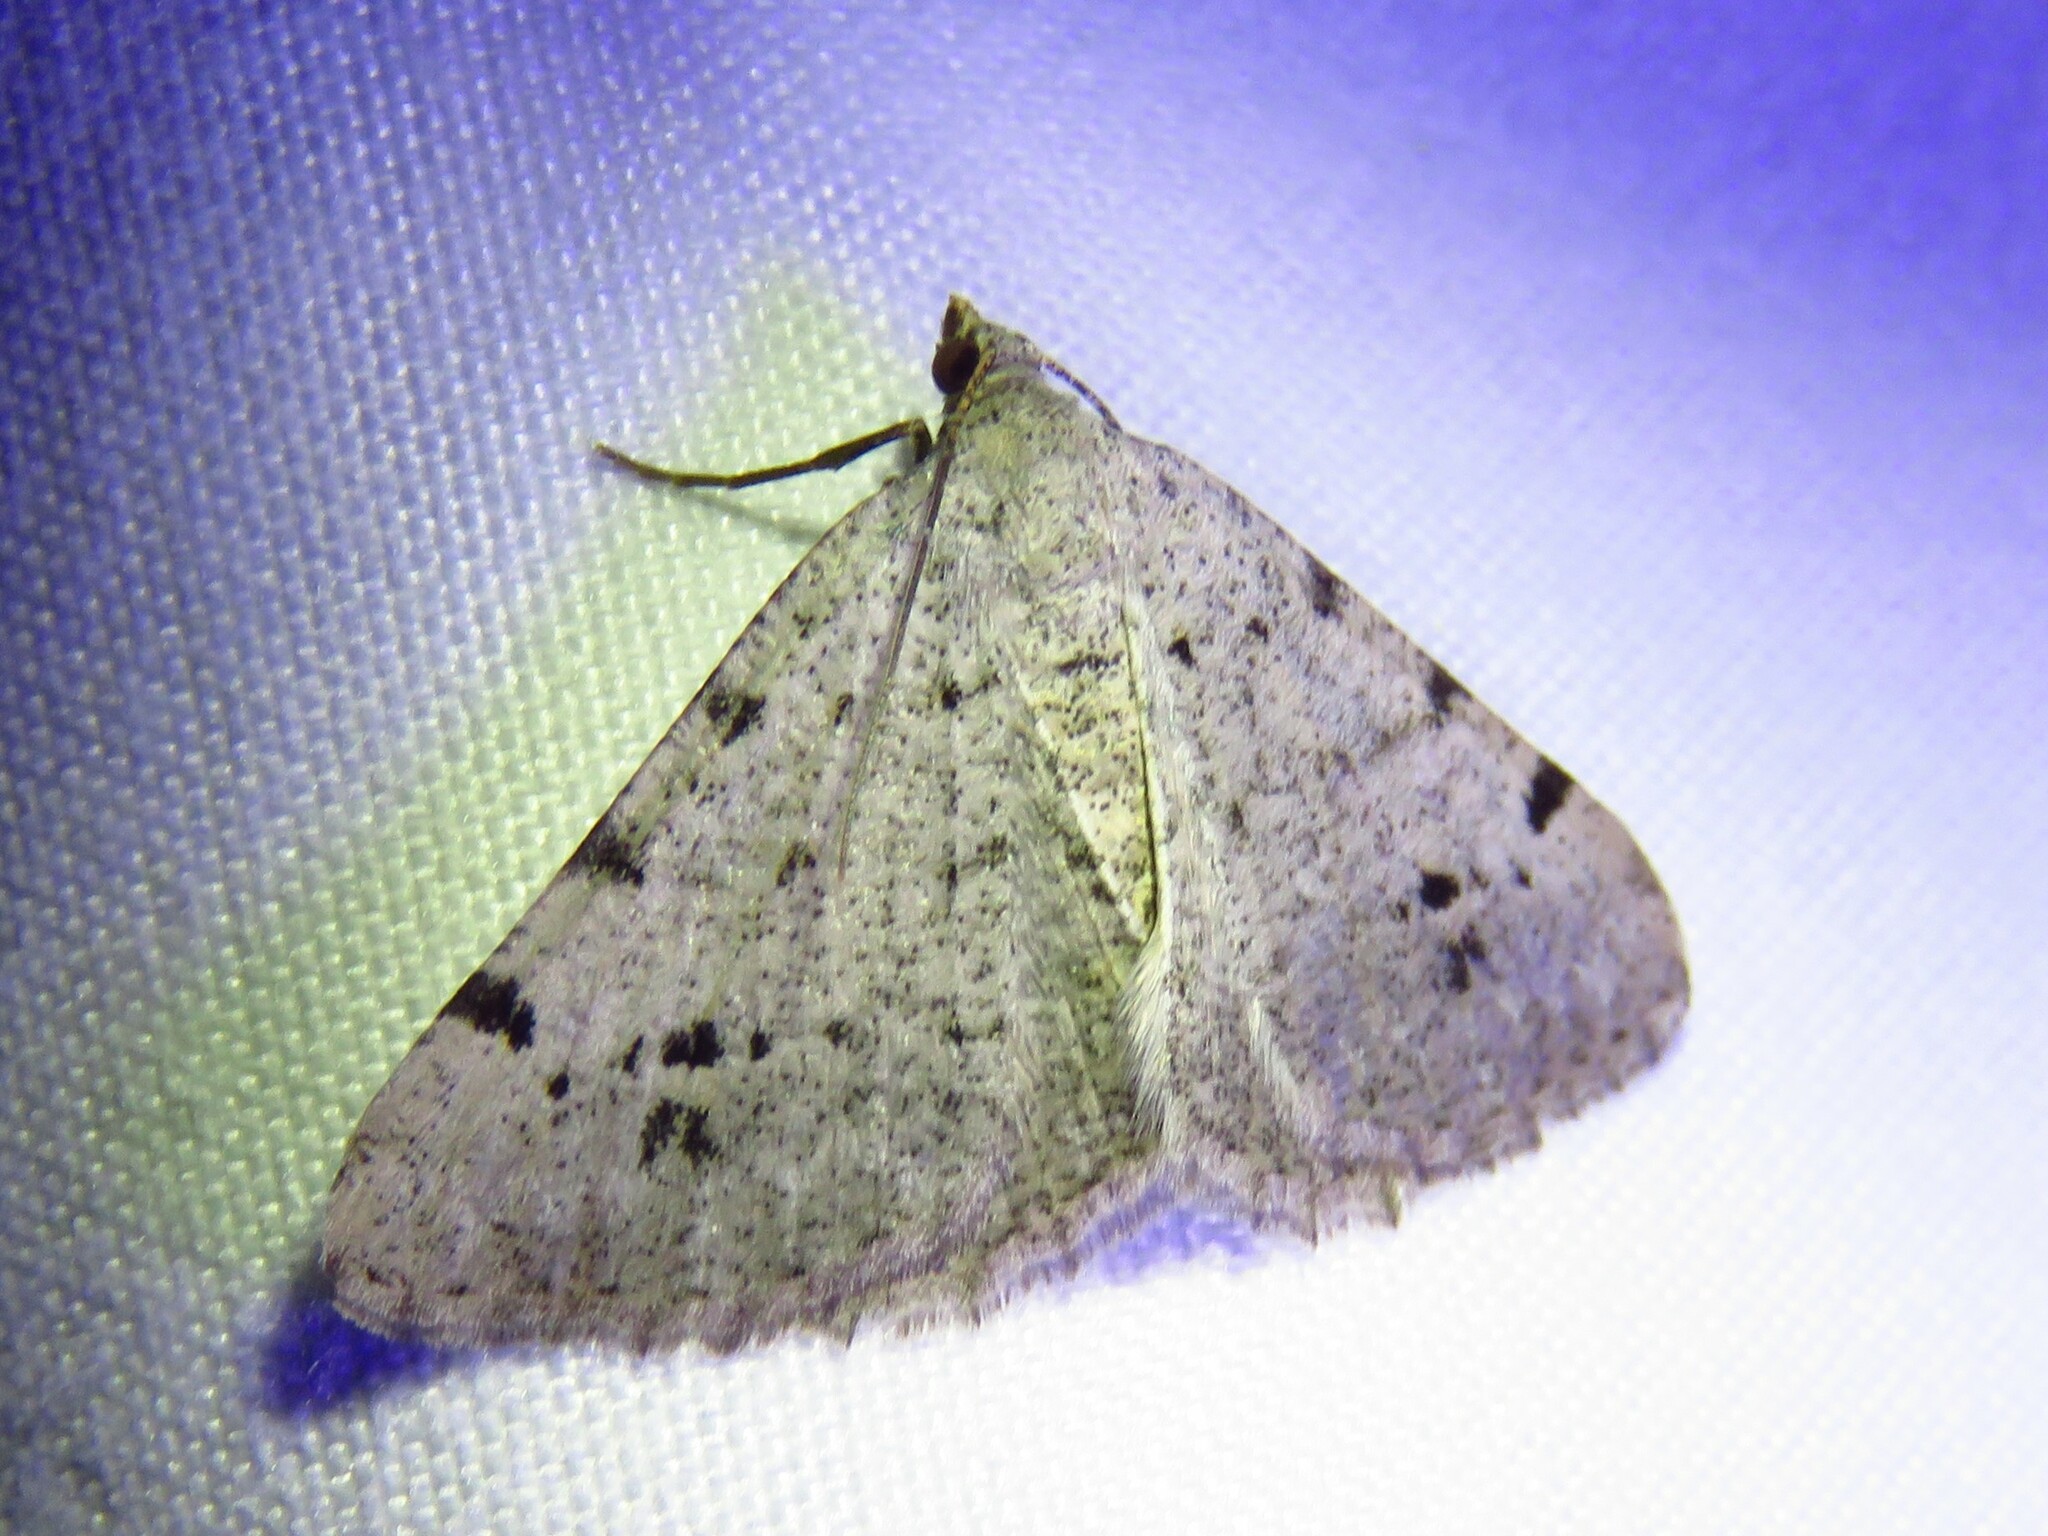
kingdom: Animalia
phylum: Arthropoda
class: Insecta
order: Lepidoptera
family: Geometridae
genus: Digrammia
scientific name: Digrammia pallidata
